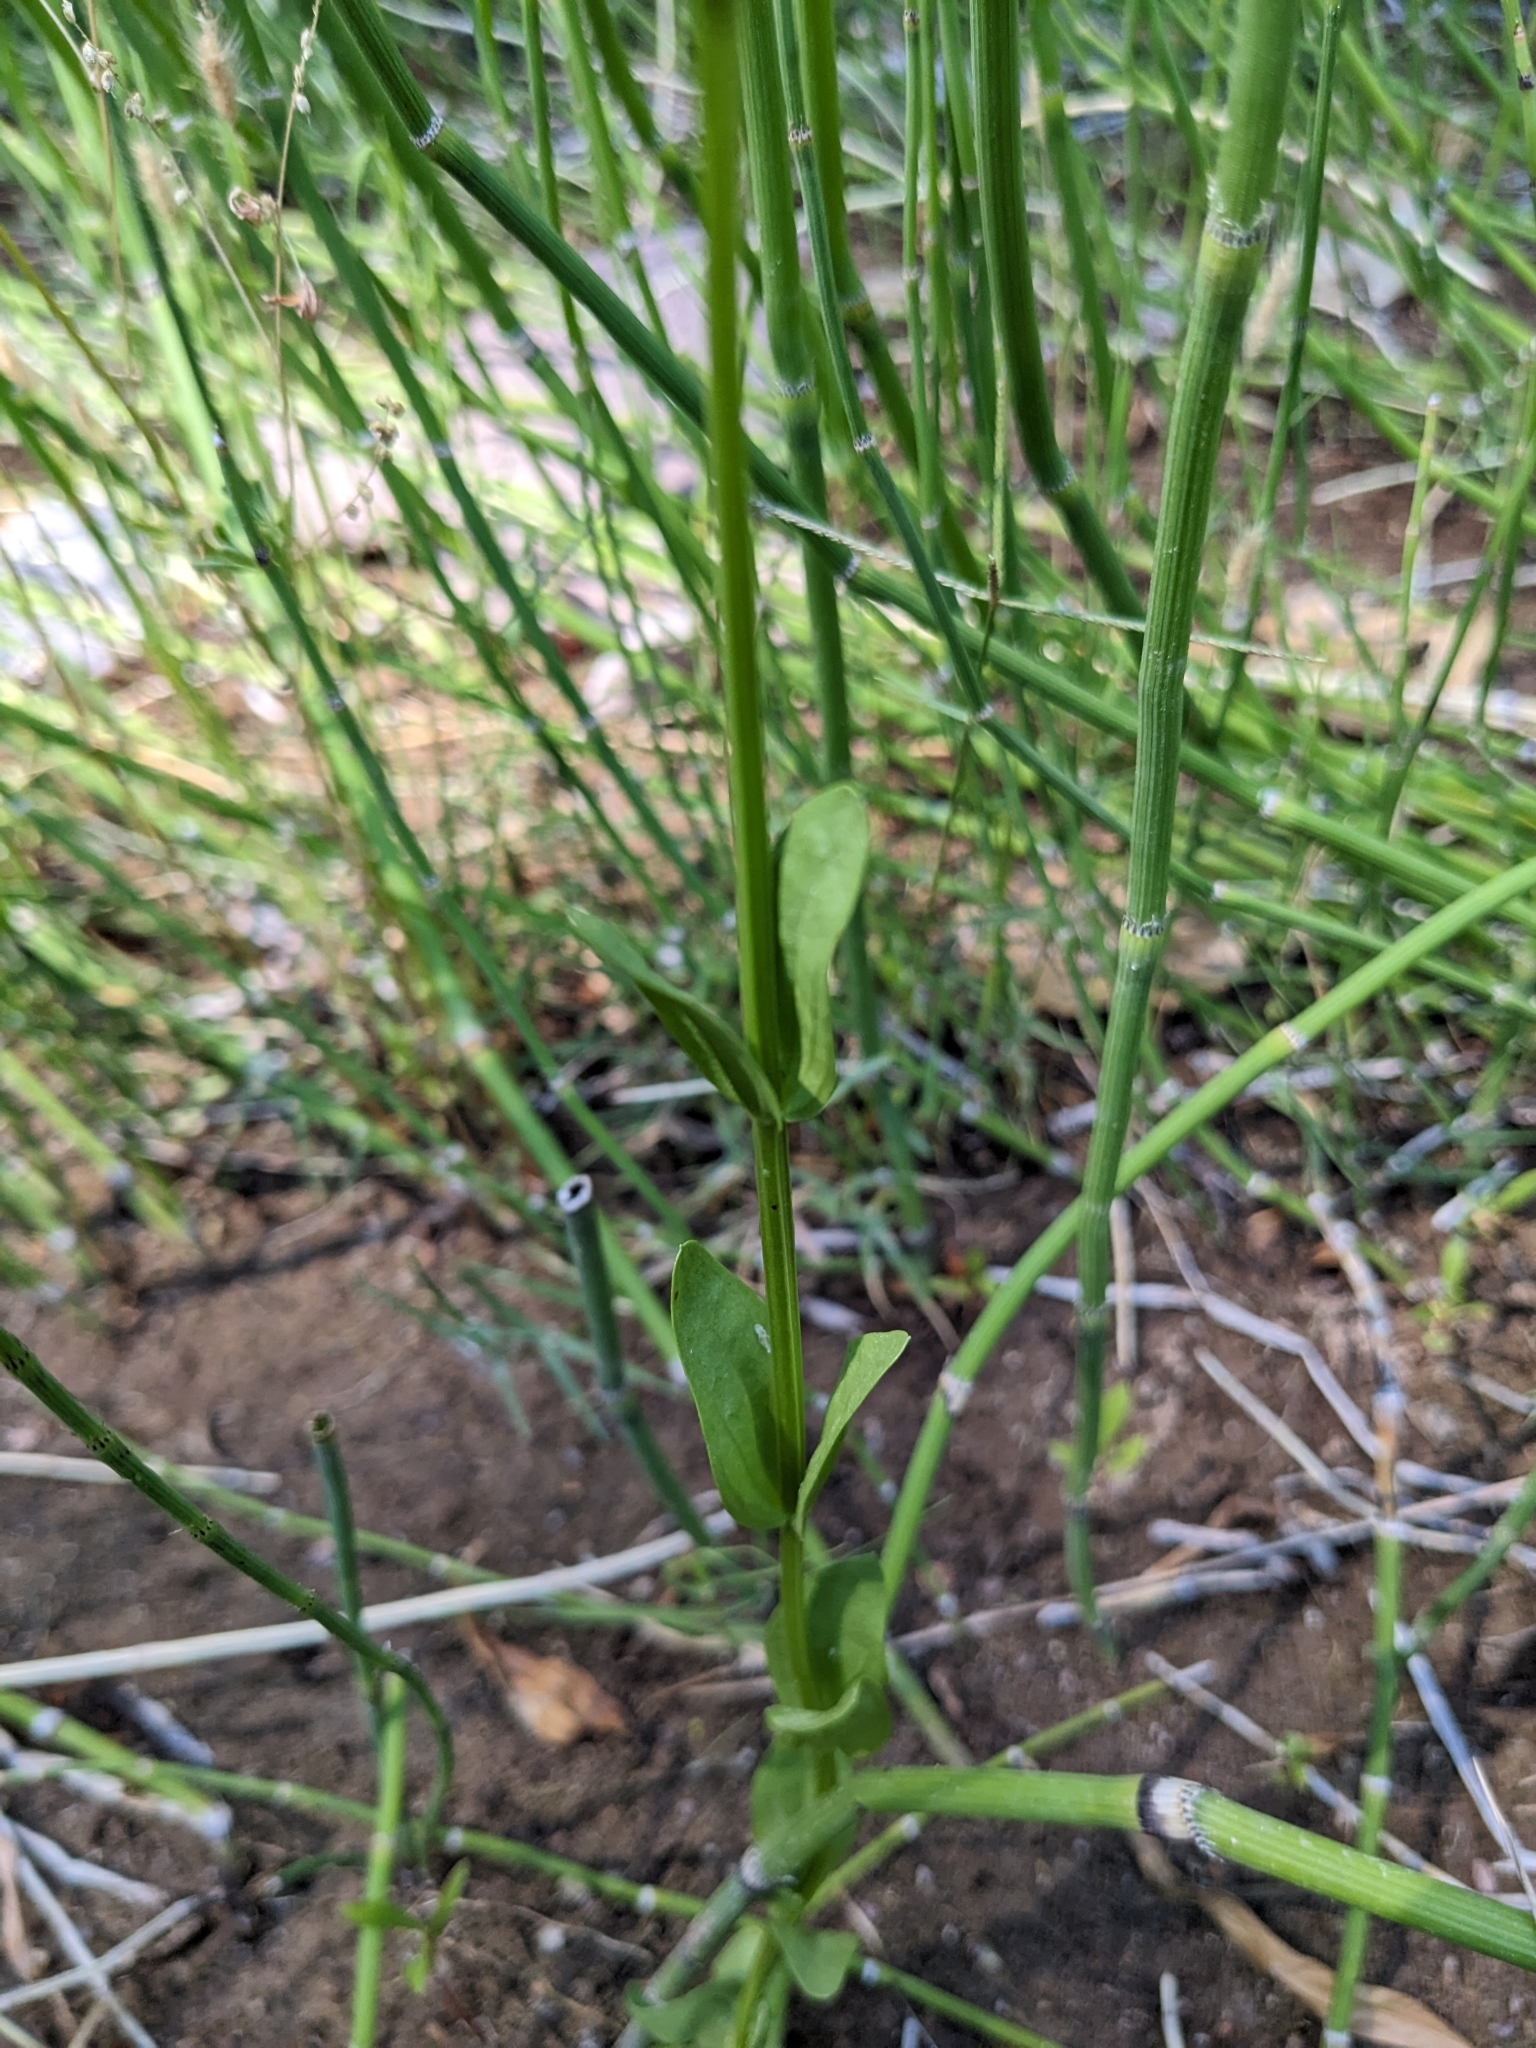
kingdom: Plantae
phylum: Tracheophyta
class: Magnoliopsida
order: Gentianales
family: Gentianaceae
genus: Zeltnera
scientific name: Zeltnera arizonica
